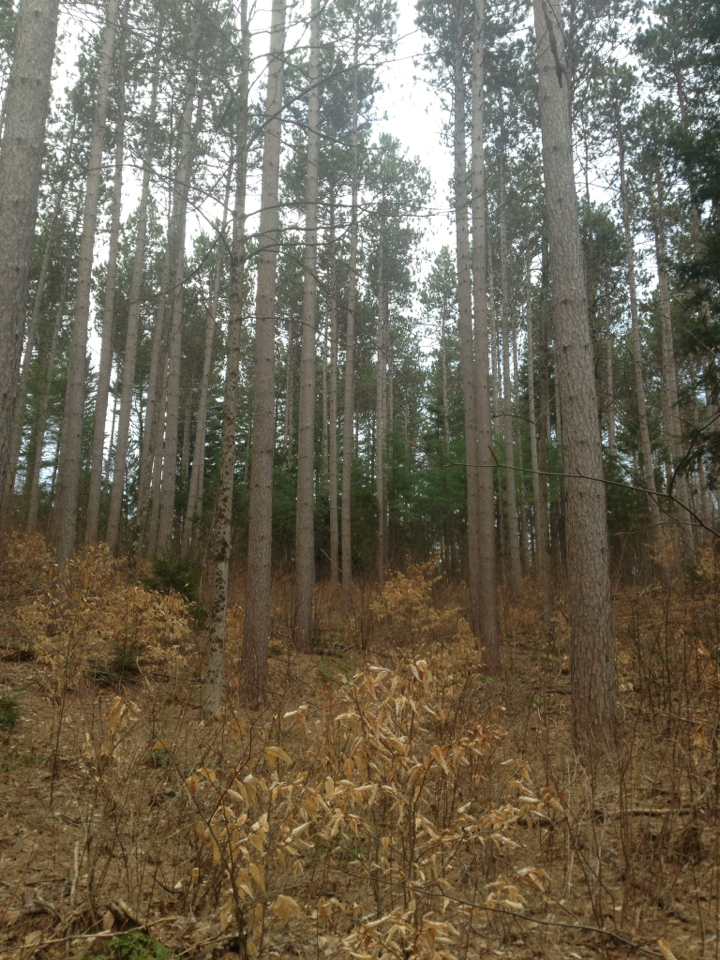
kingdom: Plantae
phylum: Tracheophyta
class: Pinopsida
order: Pinales
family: Pinaceae
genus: Pinus
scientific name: Pinus resinosa
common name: Norway pine
